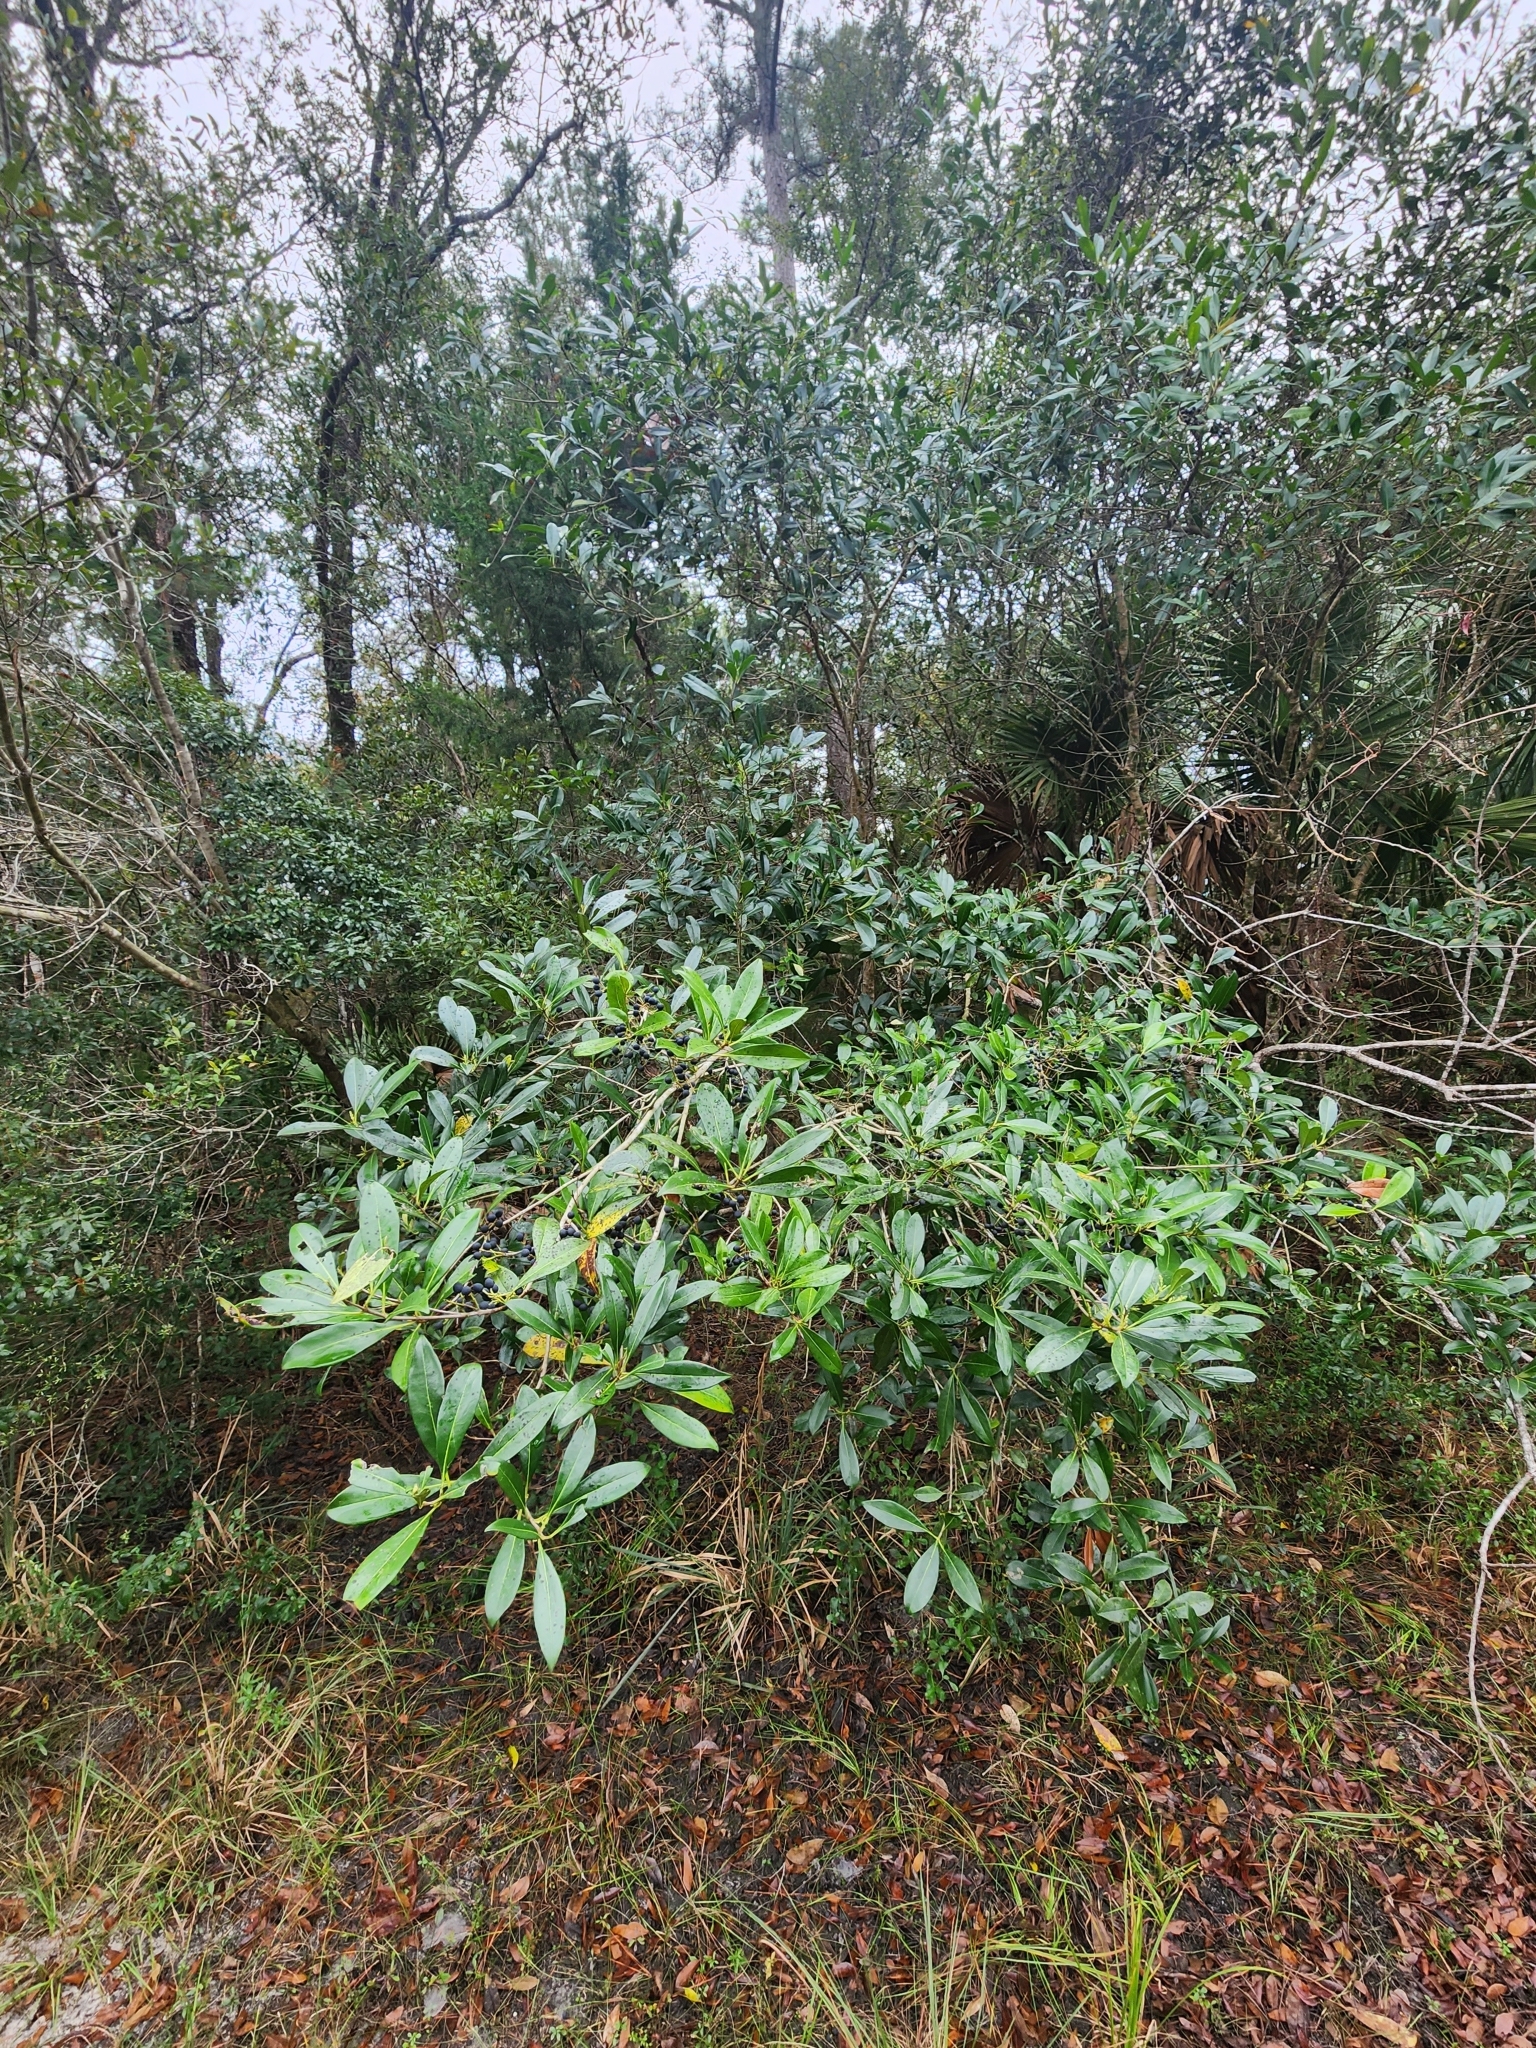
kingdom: Plantae
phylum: Tracheophyta
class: Magnoliopsida
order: Lamiales
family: Oleaceae
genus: Cartrema
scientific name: Cartrema americana
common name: Devilwood
